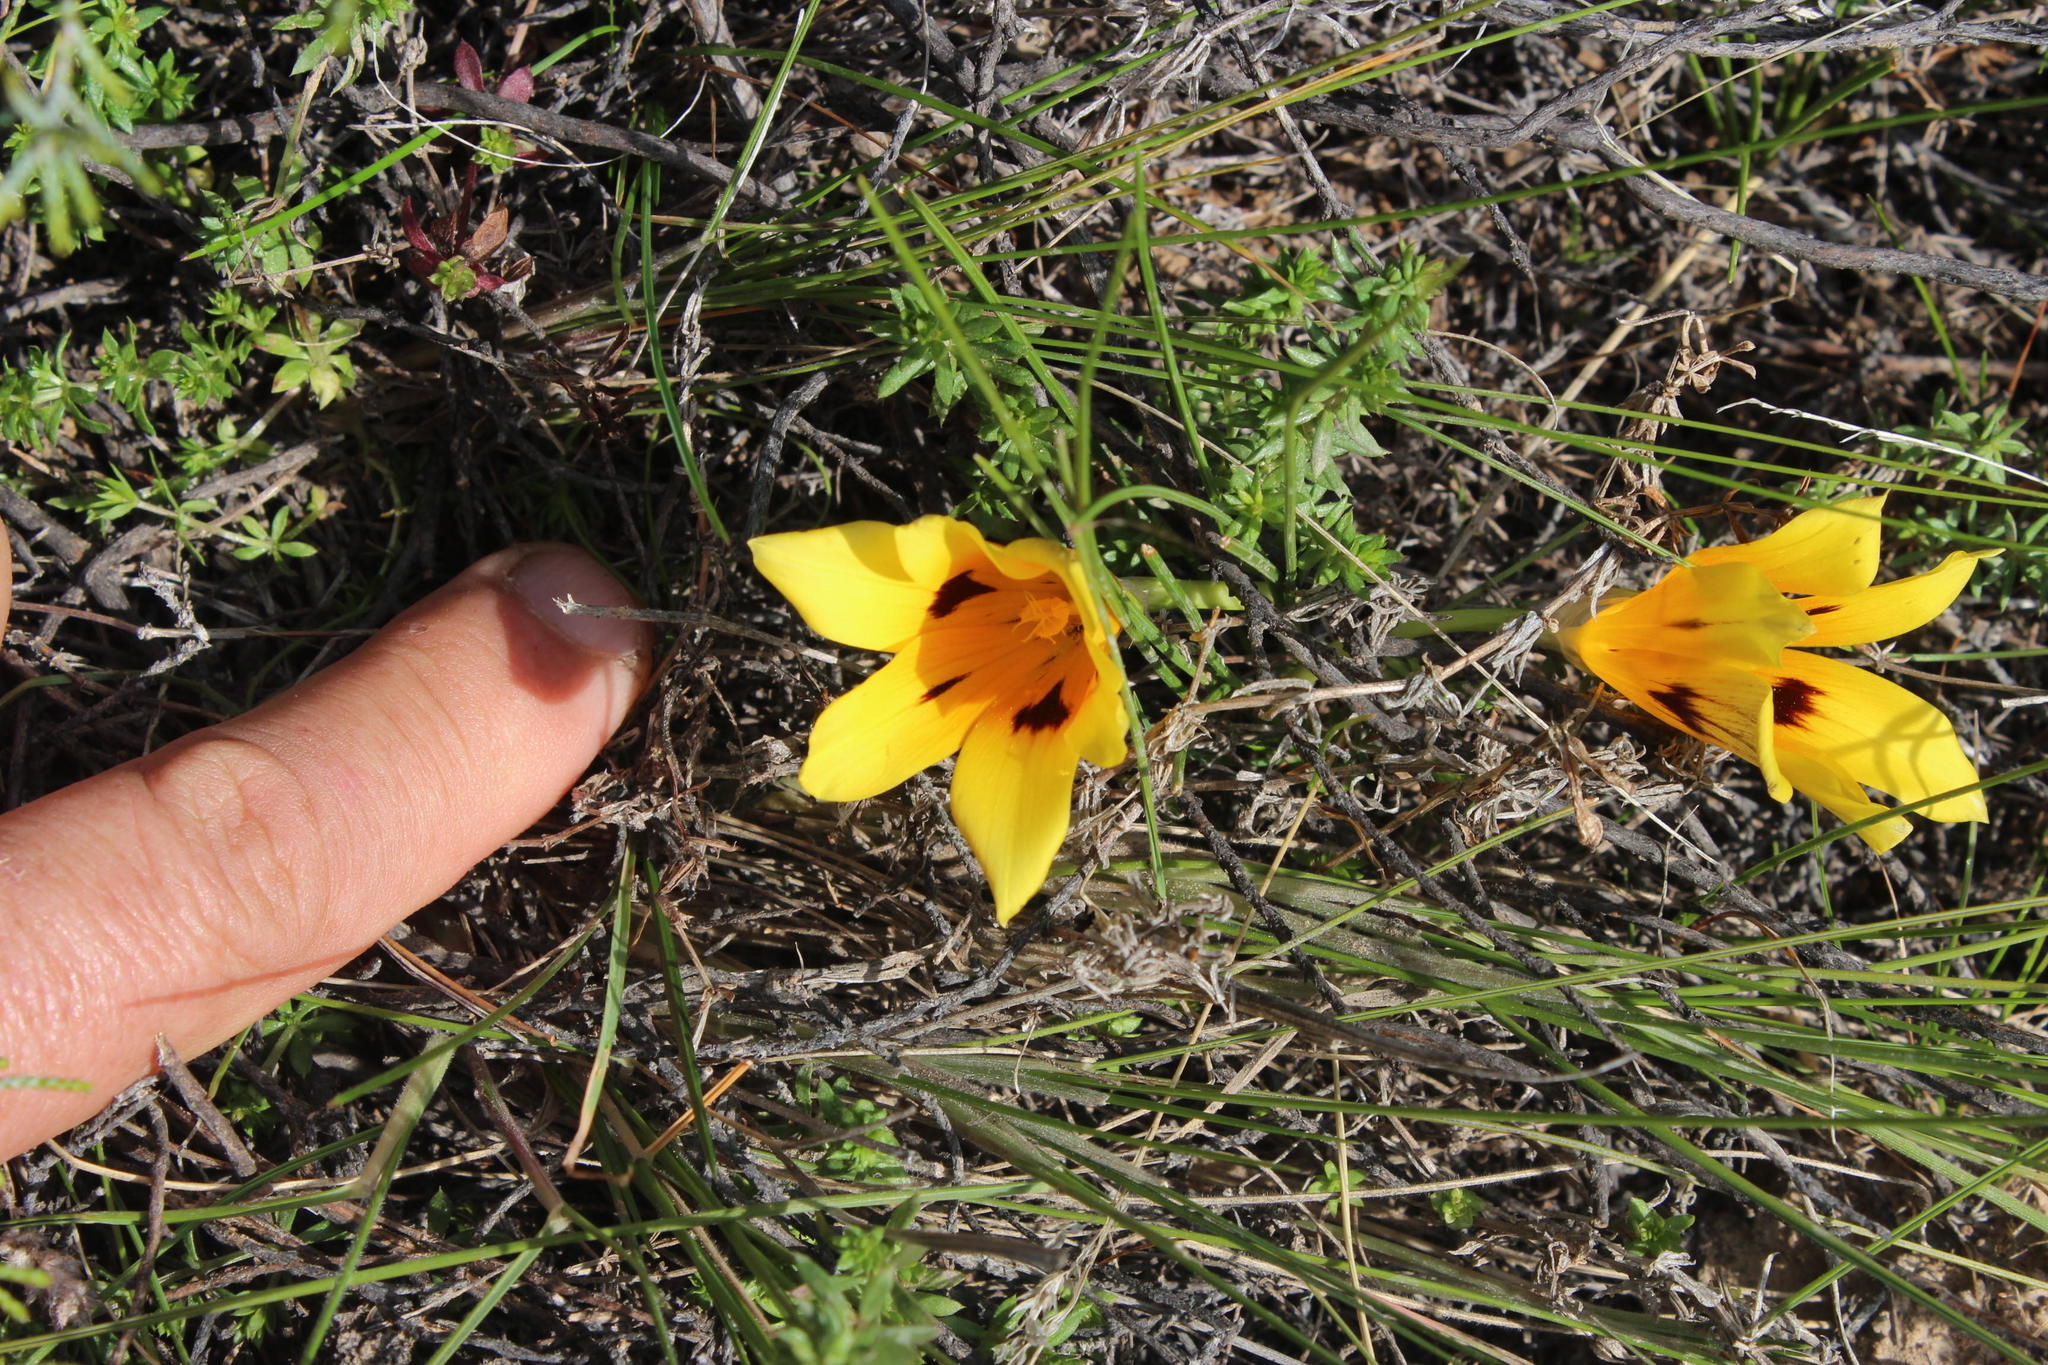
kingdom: Plantae
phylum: Tracheophyta
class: Liliopsida
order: Asparagales
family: Iridaceae
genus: Romulea
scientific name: Romulea tortuosa
